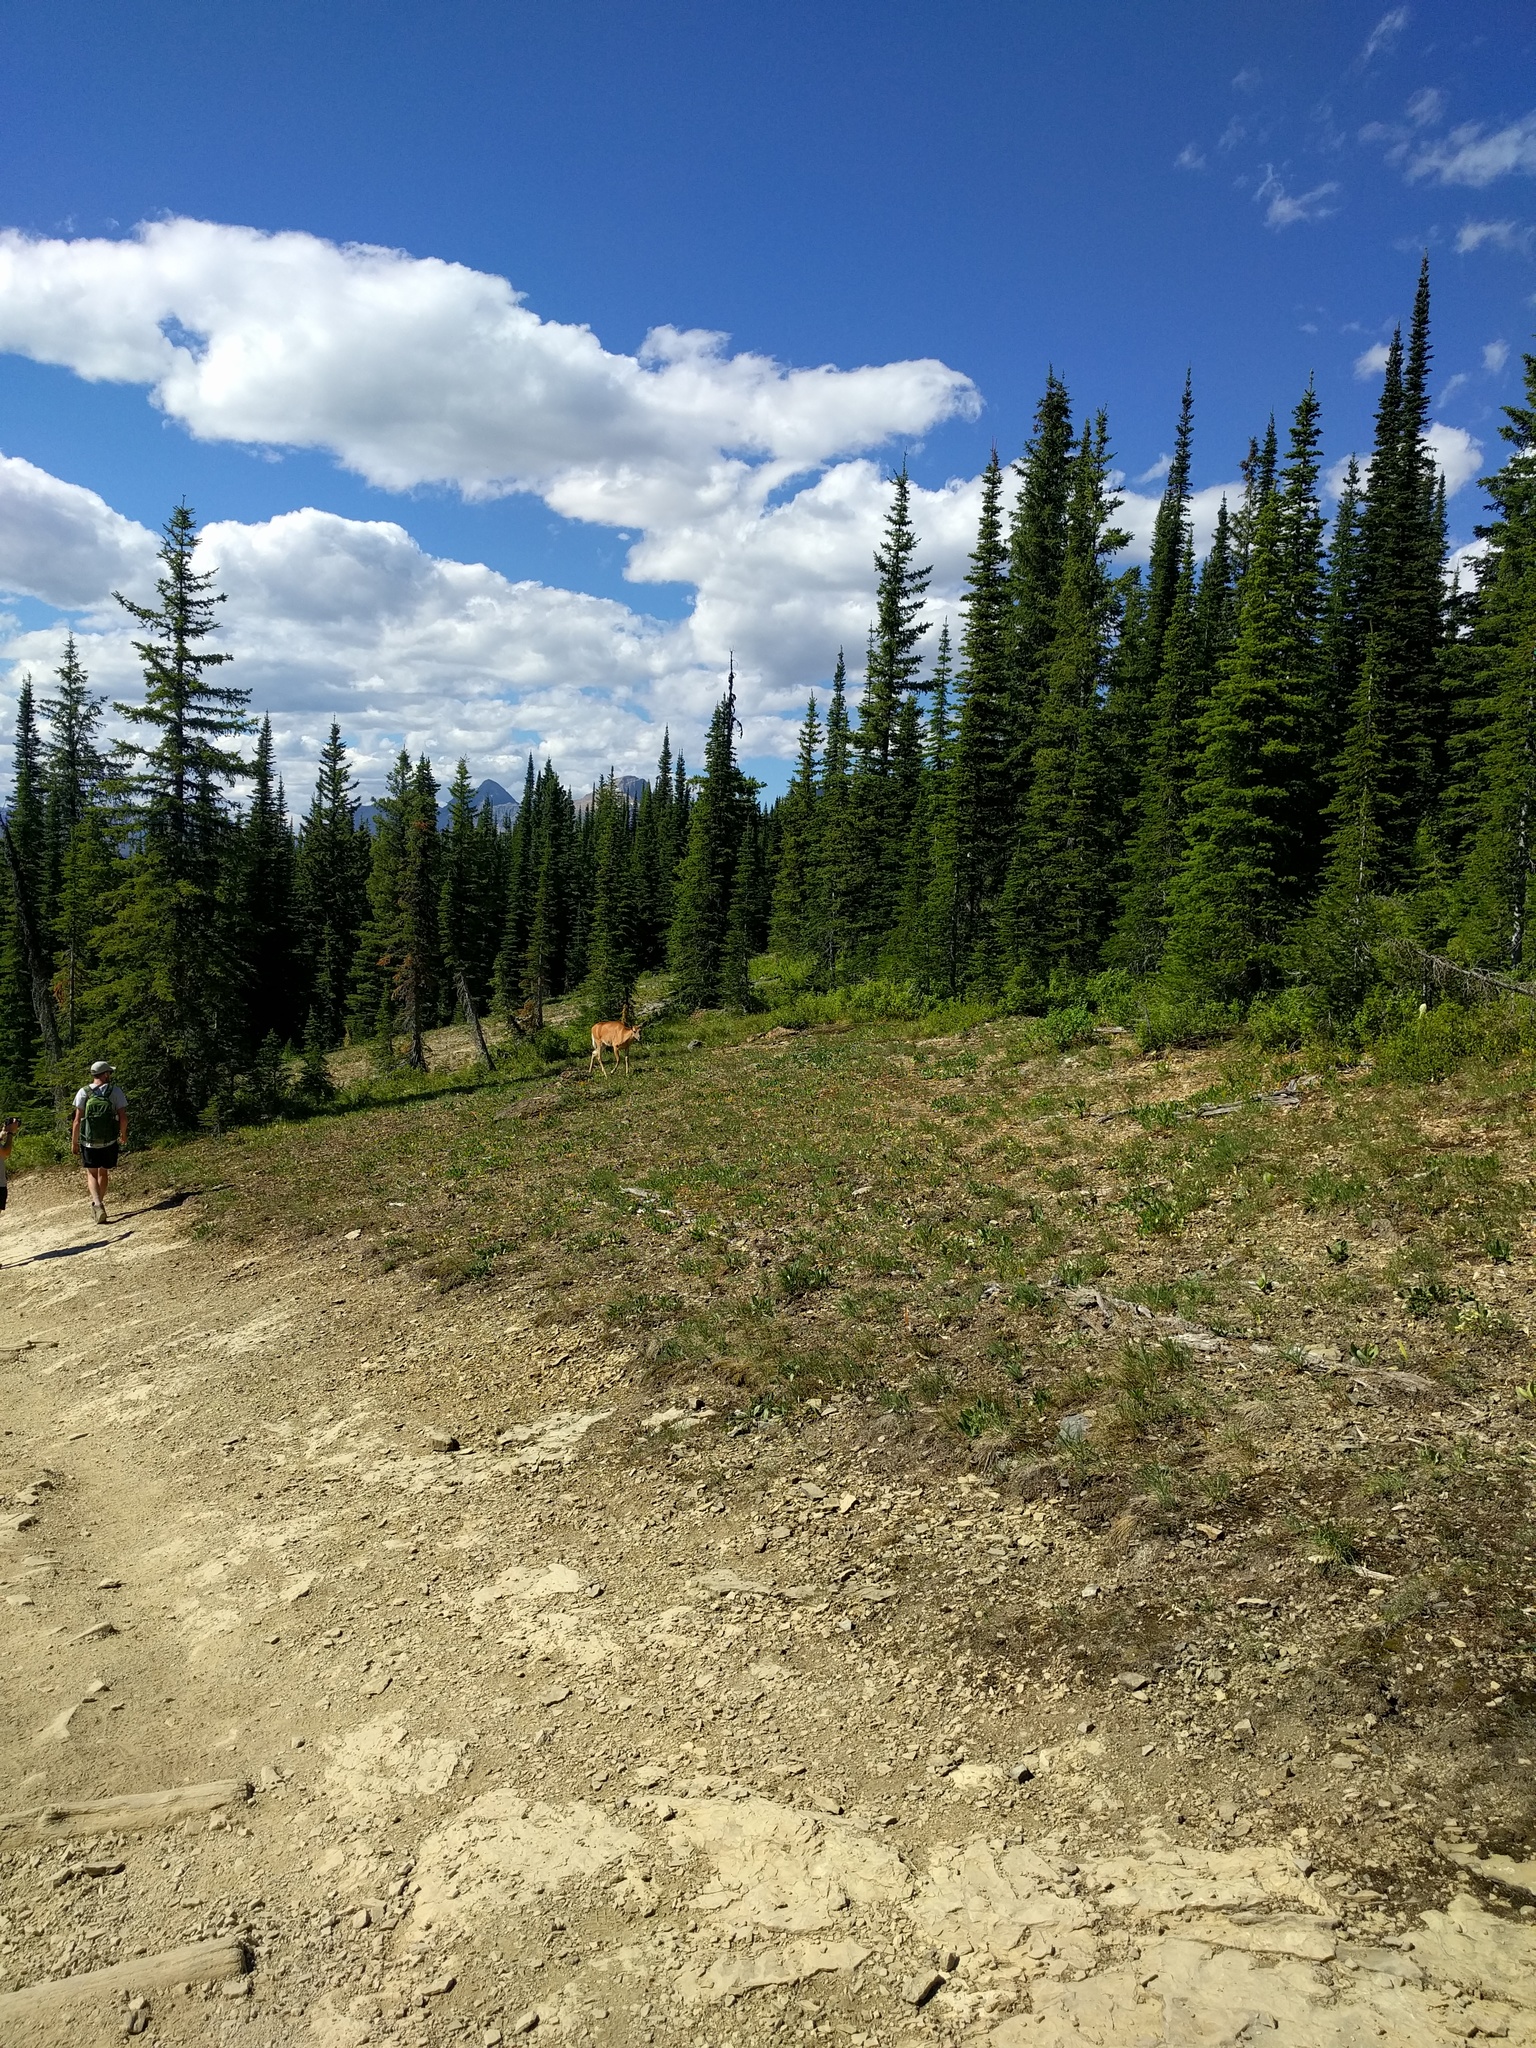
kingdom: Animalia
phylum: Chordata
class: Mammalia
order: Artiodactyla
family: Cervidae
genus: Odocoileus
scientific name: Odocoileus hemionus
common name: Mule deer
